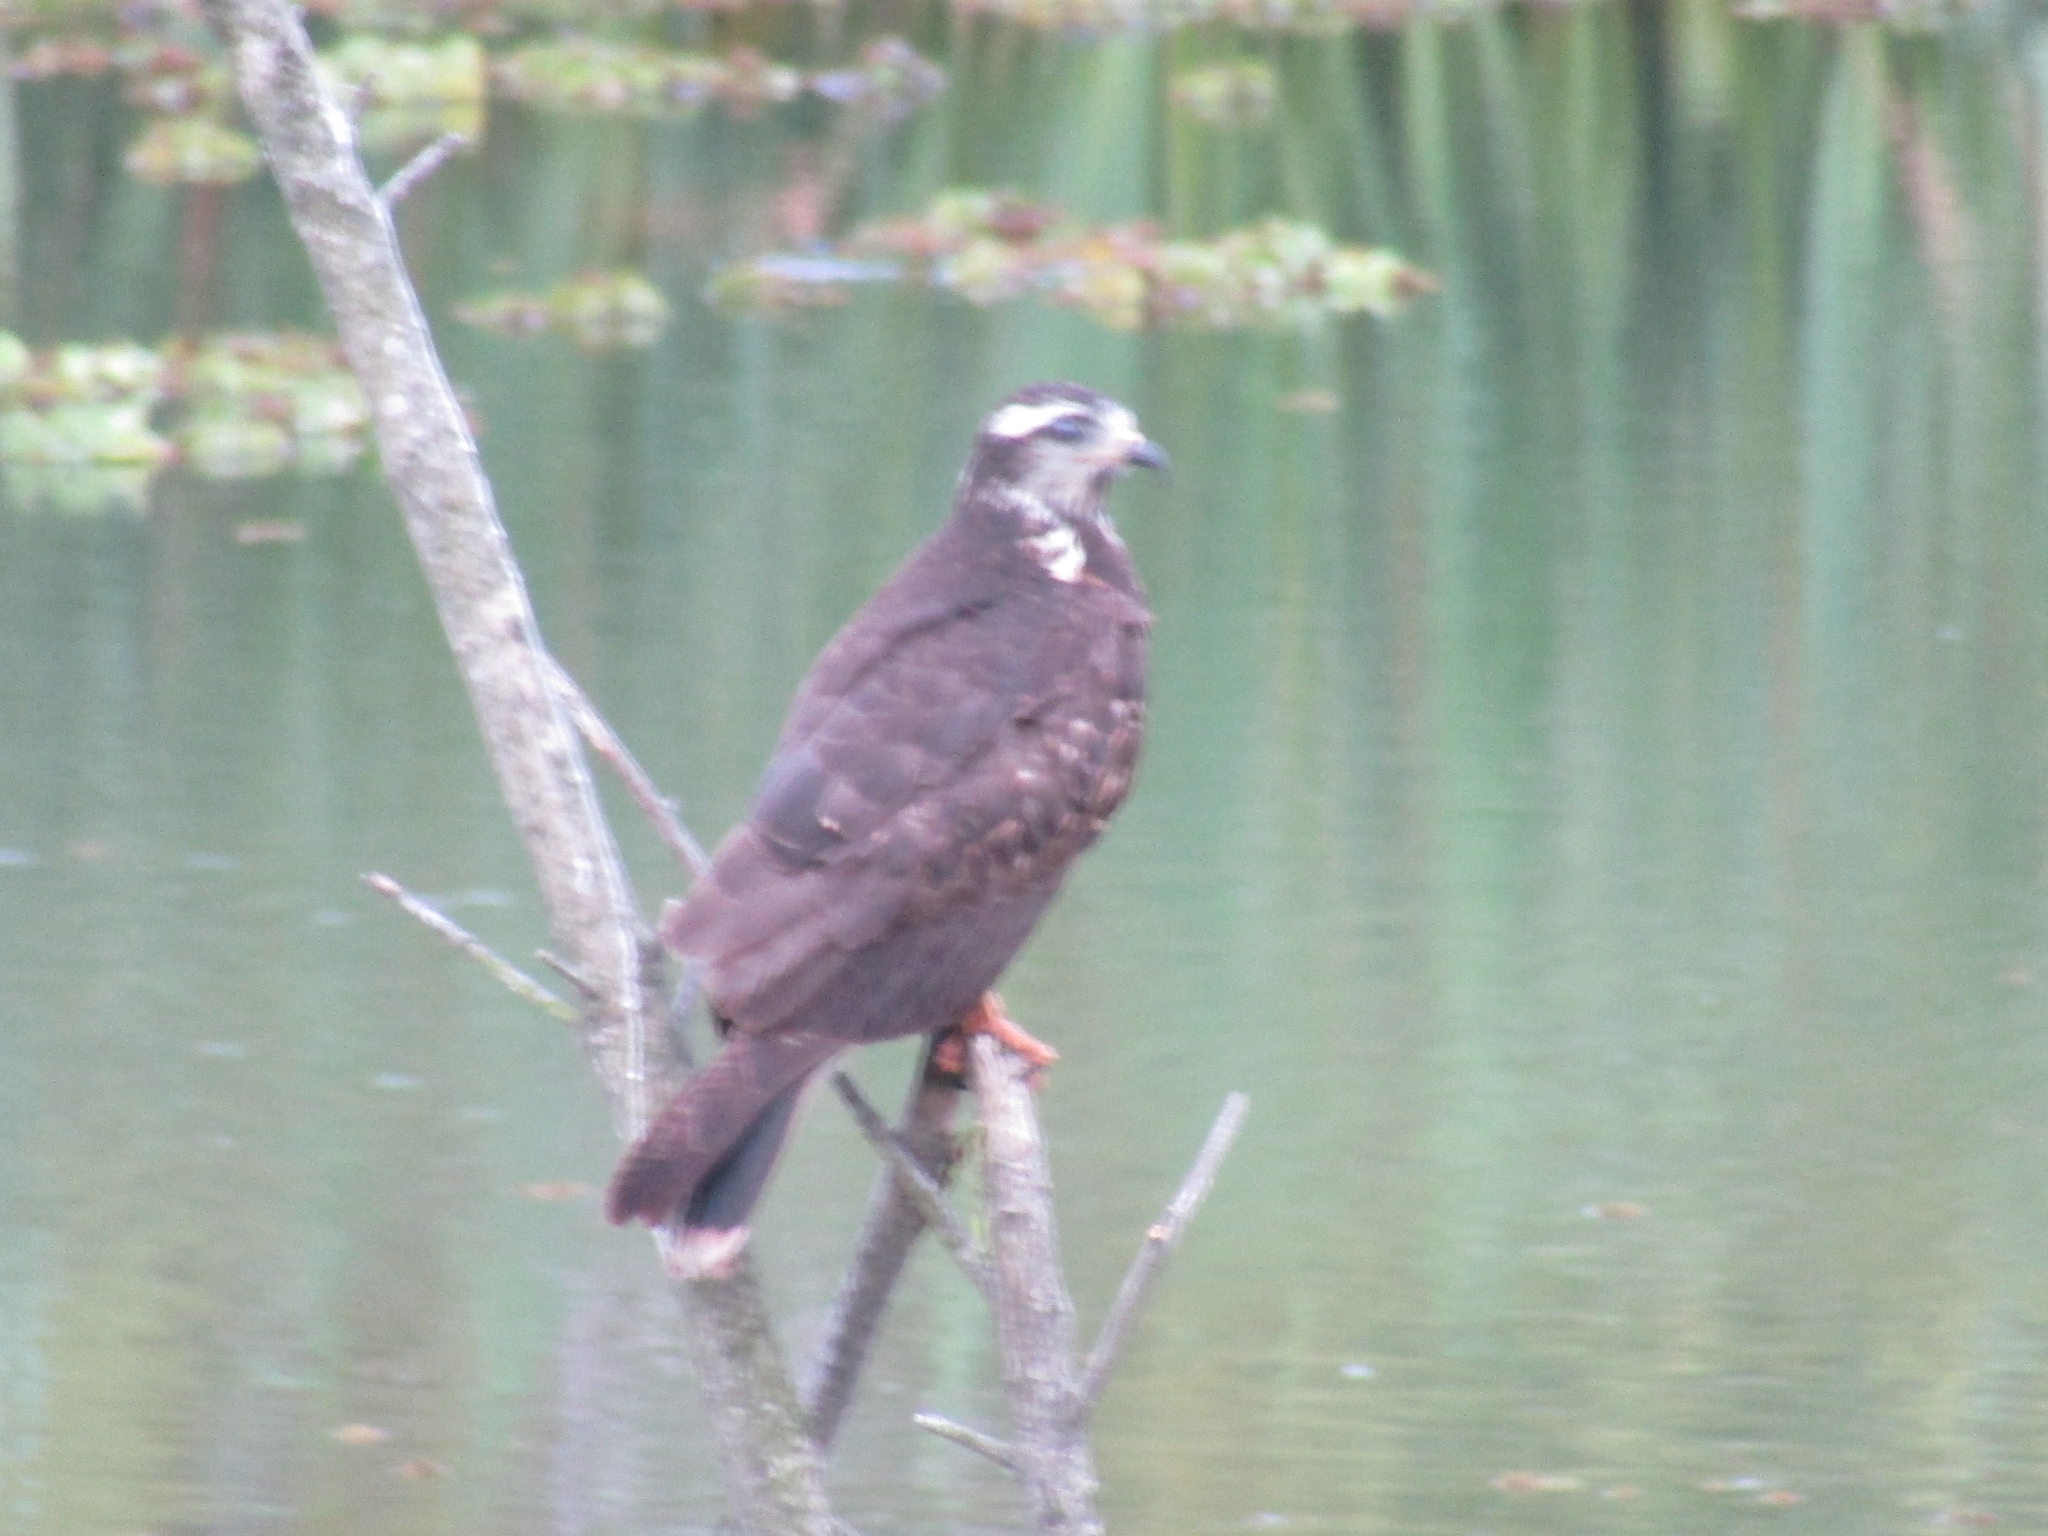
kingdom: Animalia
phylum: Chordata
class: Aves
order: Accipitriformes
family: Accipitridae
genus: Rostrhamus
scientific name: Rostrhamus sociabilis
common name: Snail kite
